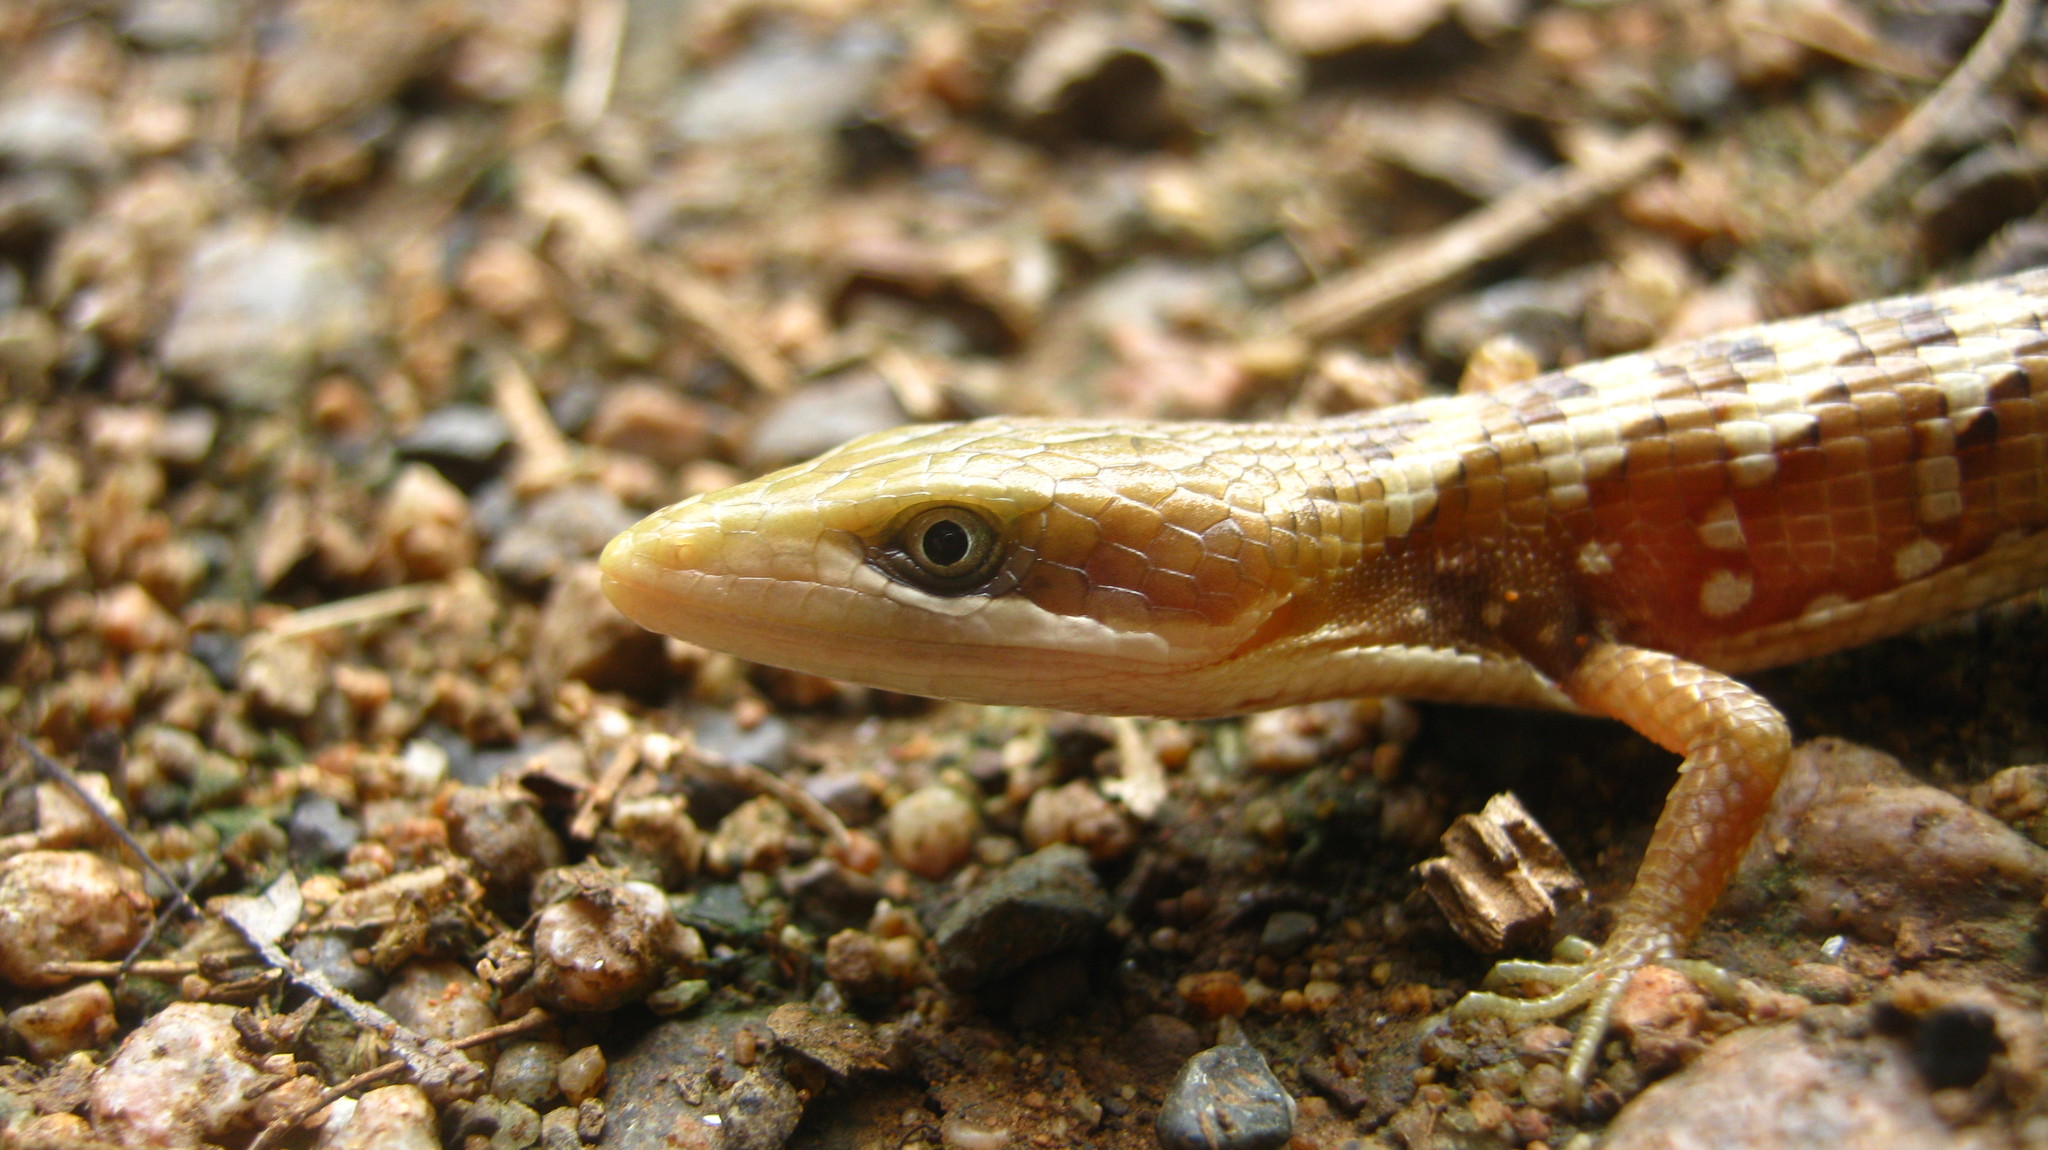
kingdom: Animalia
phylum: Chordata
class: Squamata
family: Anguidae
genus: Gerrhonotus
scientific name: Gerrhonotus liocephalus
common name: Texas alligator lizard
